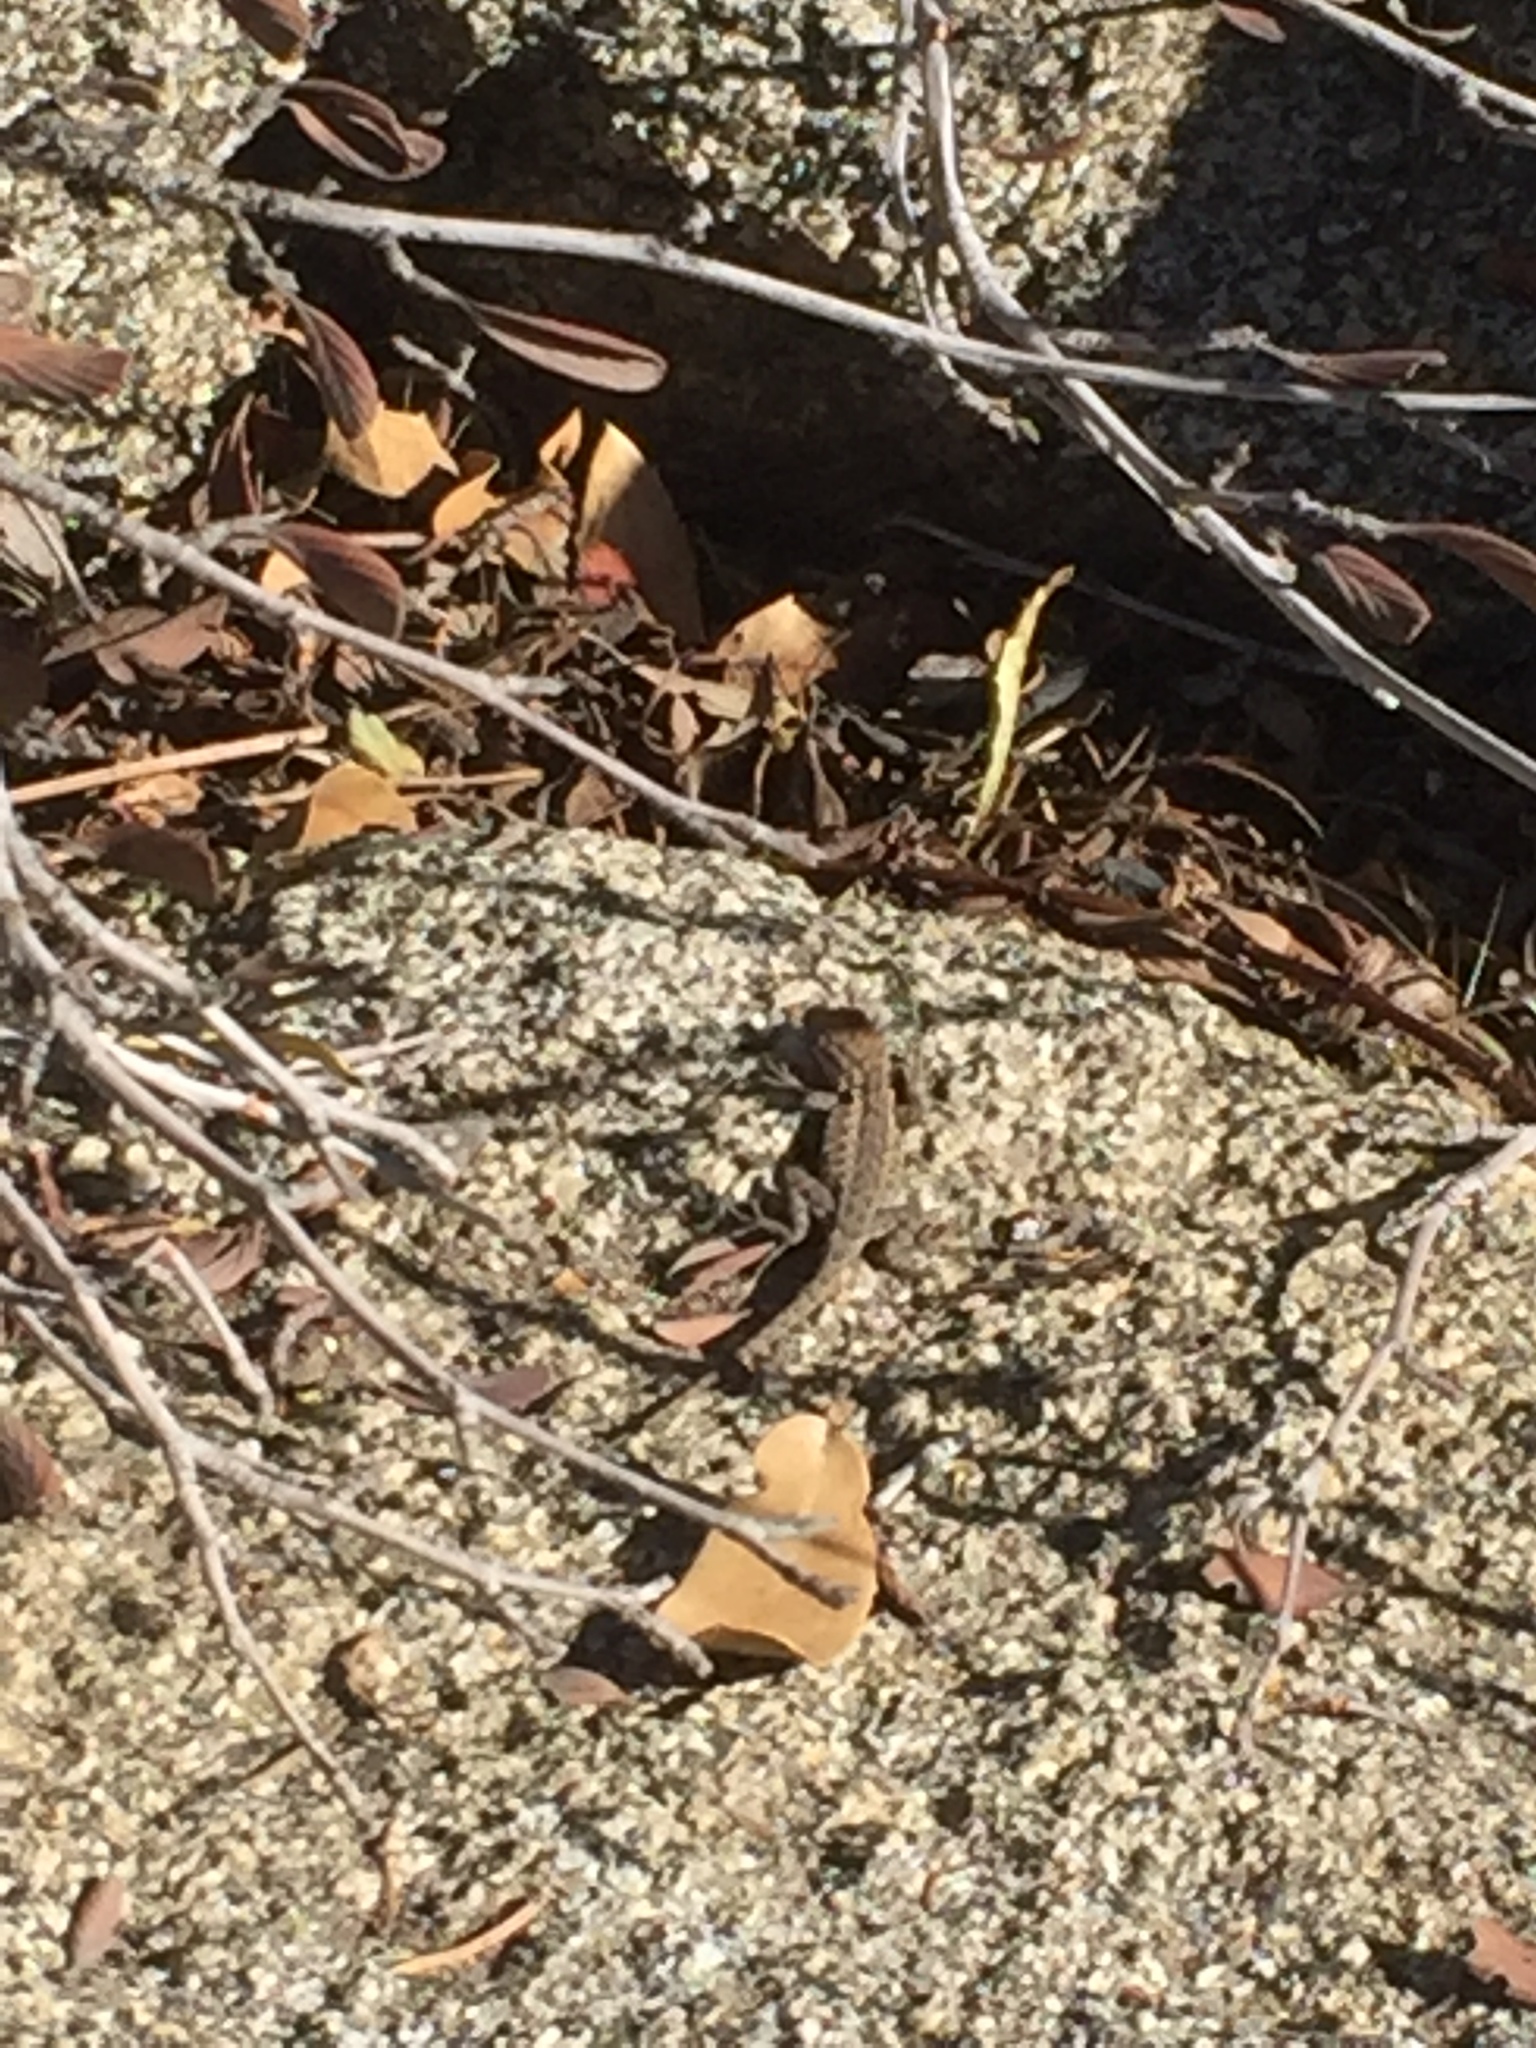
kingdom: Animalia
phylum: Chordata
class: Squamata
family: Phrynosomatidae
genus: Sceloporus
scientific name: Sceloporus occidentalis
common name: Western fence lizard
